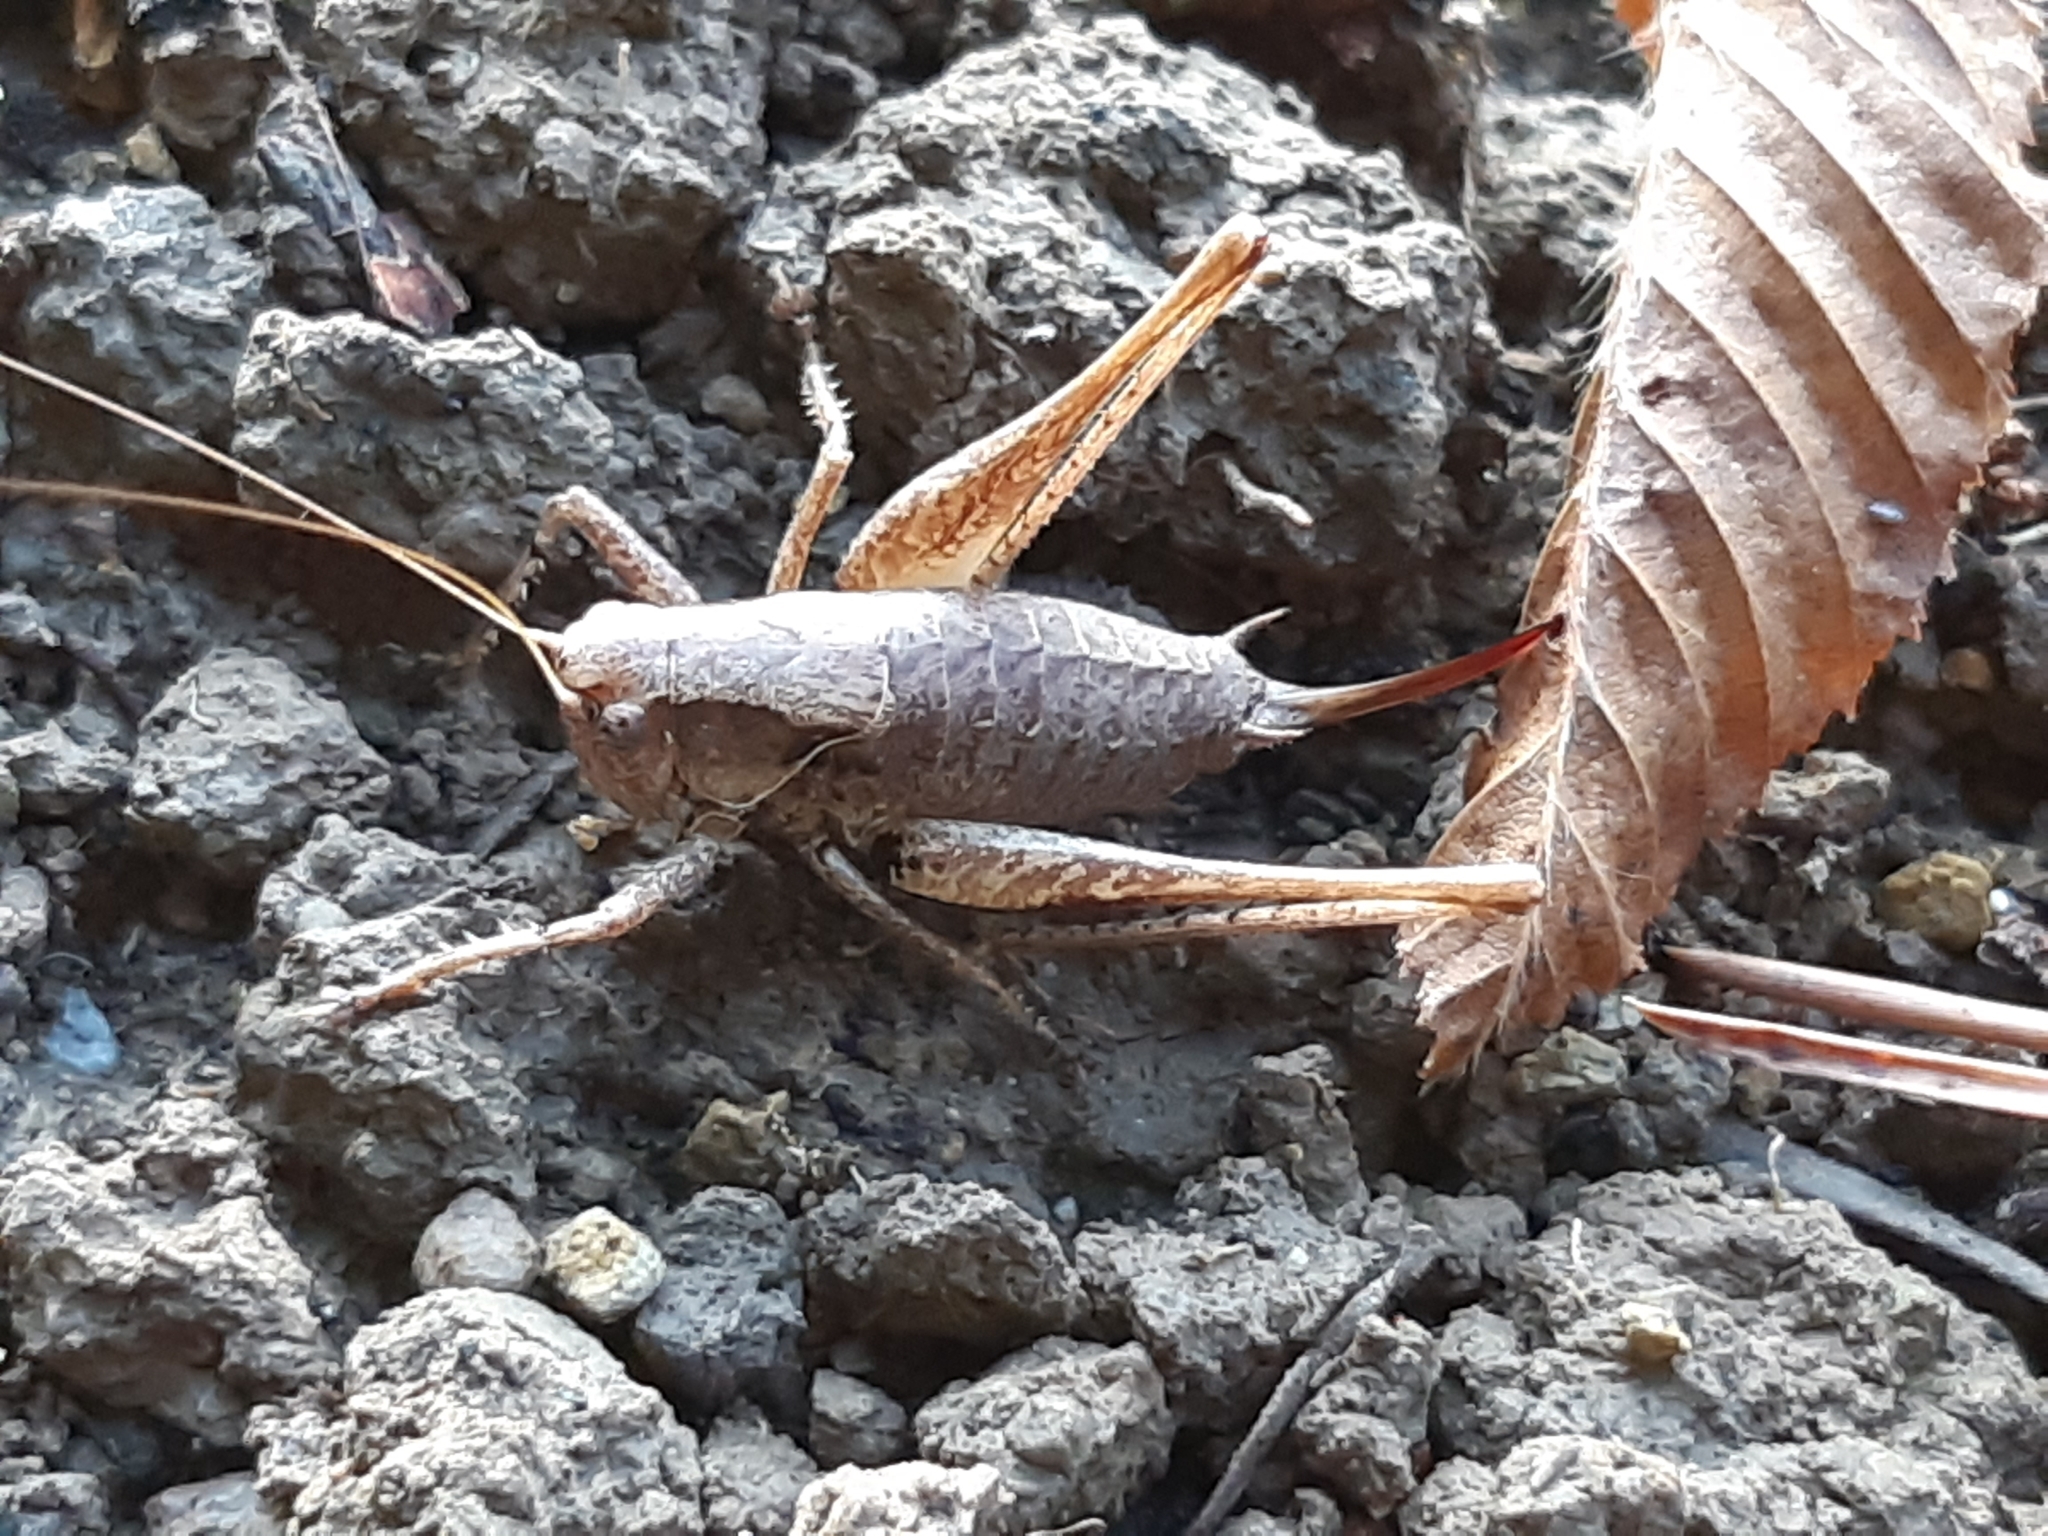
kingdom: Animalia
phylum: Arthropoda
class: Insecta
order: Orthoptera
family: Tettigoniidae
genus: Pholidoptera
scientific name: Pholidoptera griseoaptera
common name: Dark bush-cricket
